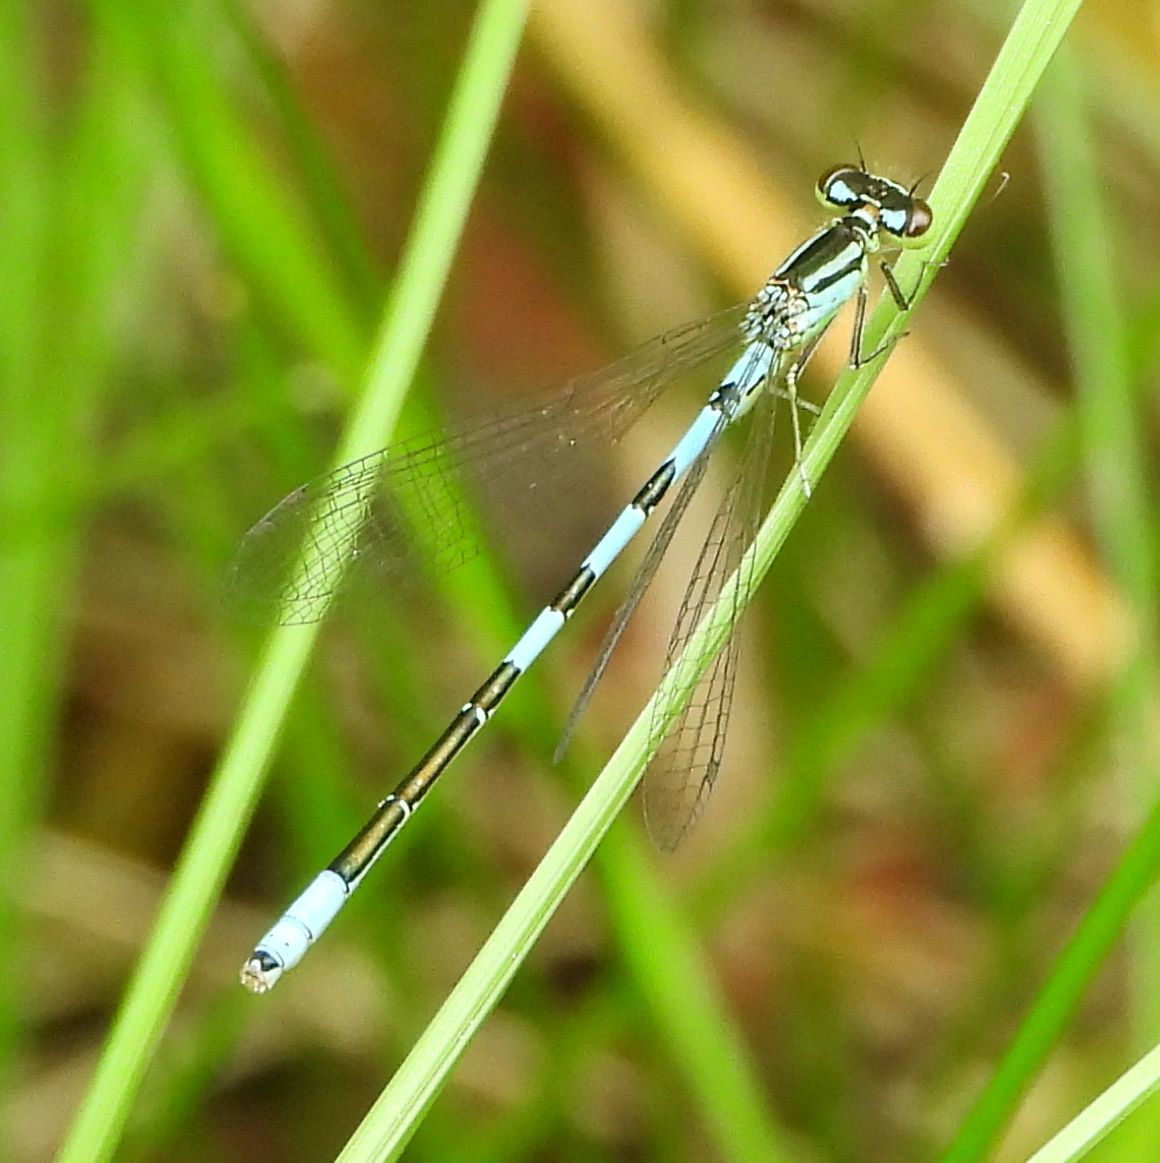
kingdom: Animalia
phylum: Arthropoda
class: Insecta
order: Odonata
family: Coenagrionidae
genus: Coenagrion
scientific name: Coenagrion resolutum
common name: Taiga bluet
